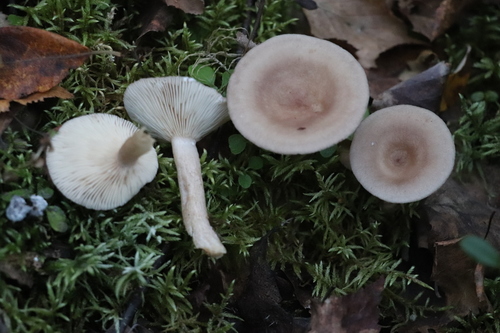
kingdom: Fungi
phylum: Basidiomycota
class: Agaricomycetes
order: Russulales
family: Russulaceae
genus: Lactarius
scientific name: Lactarius vietus
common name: Grey milk-cap
